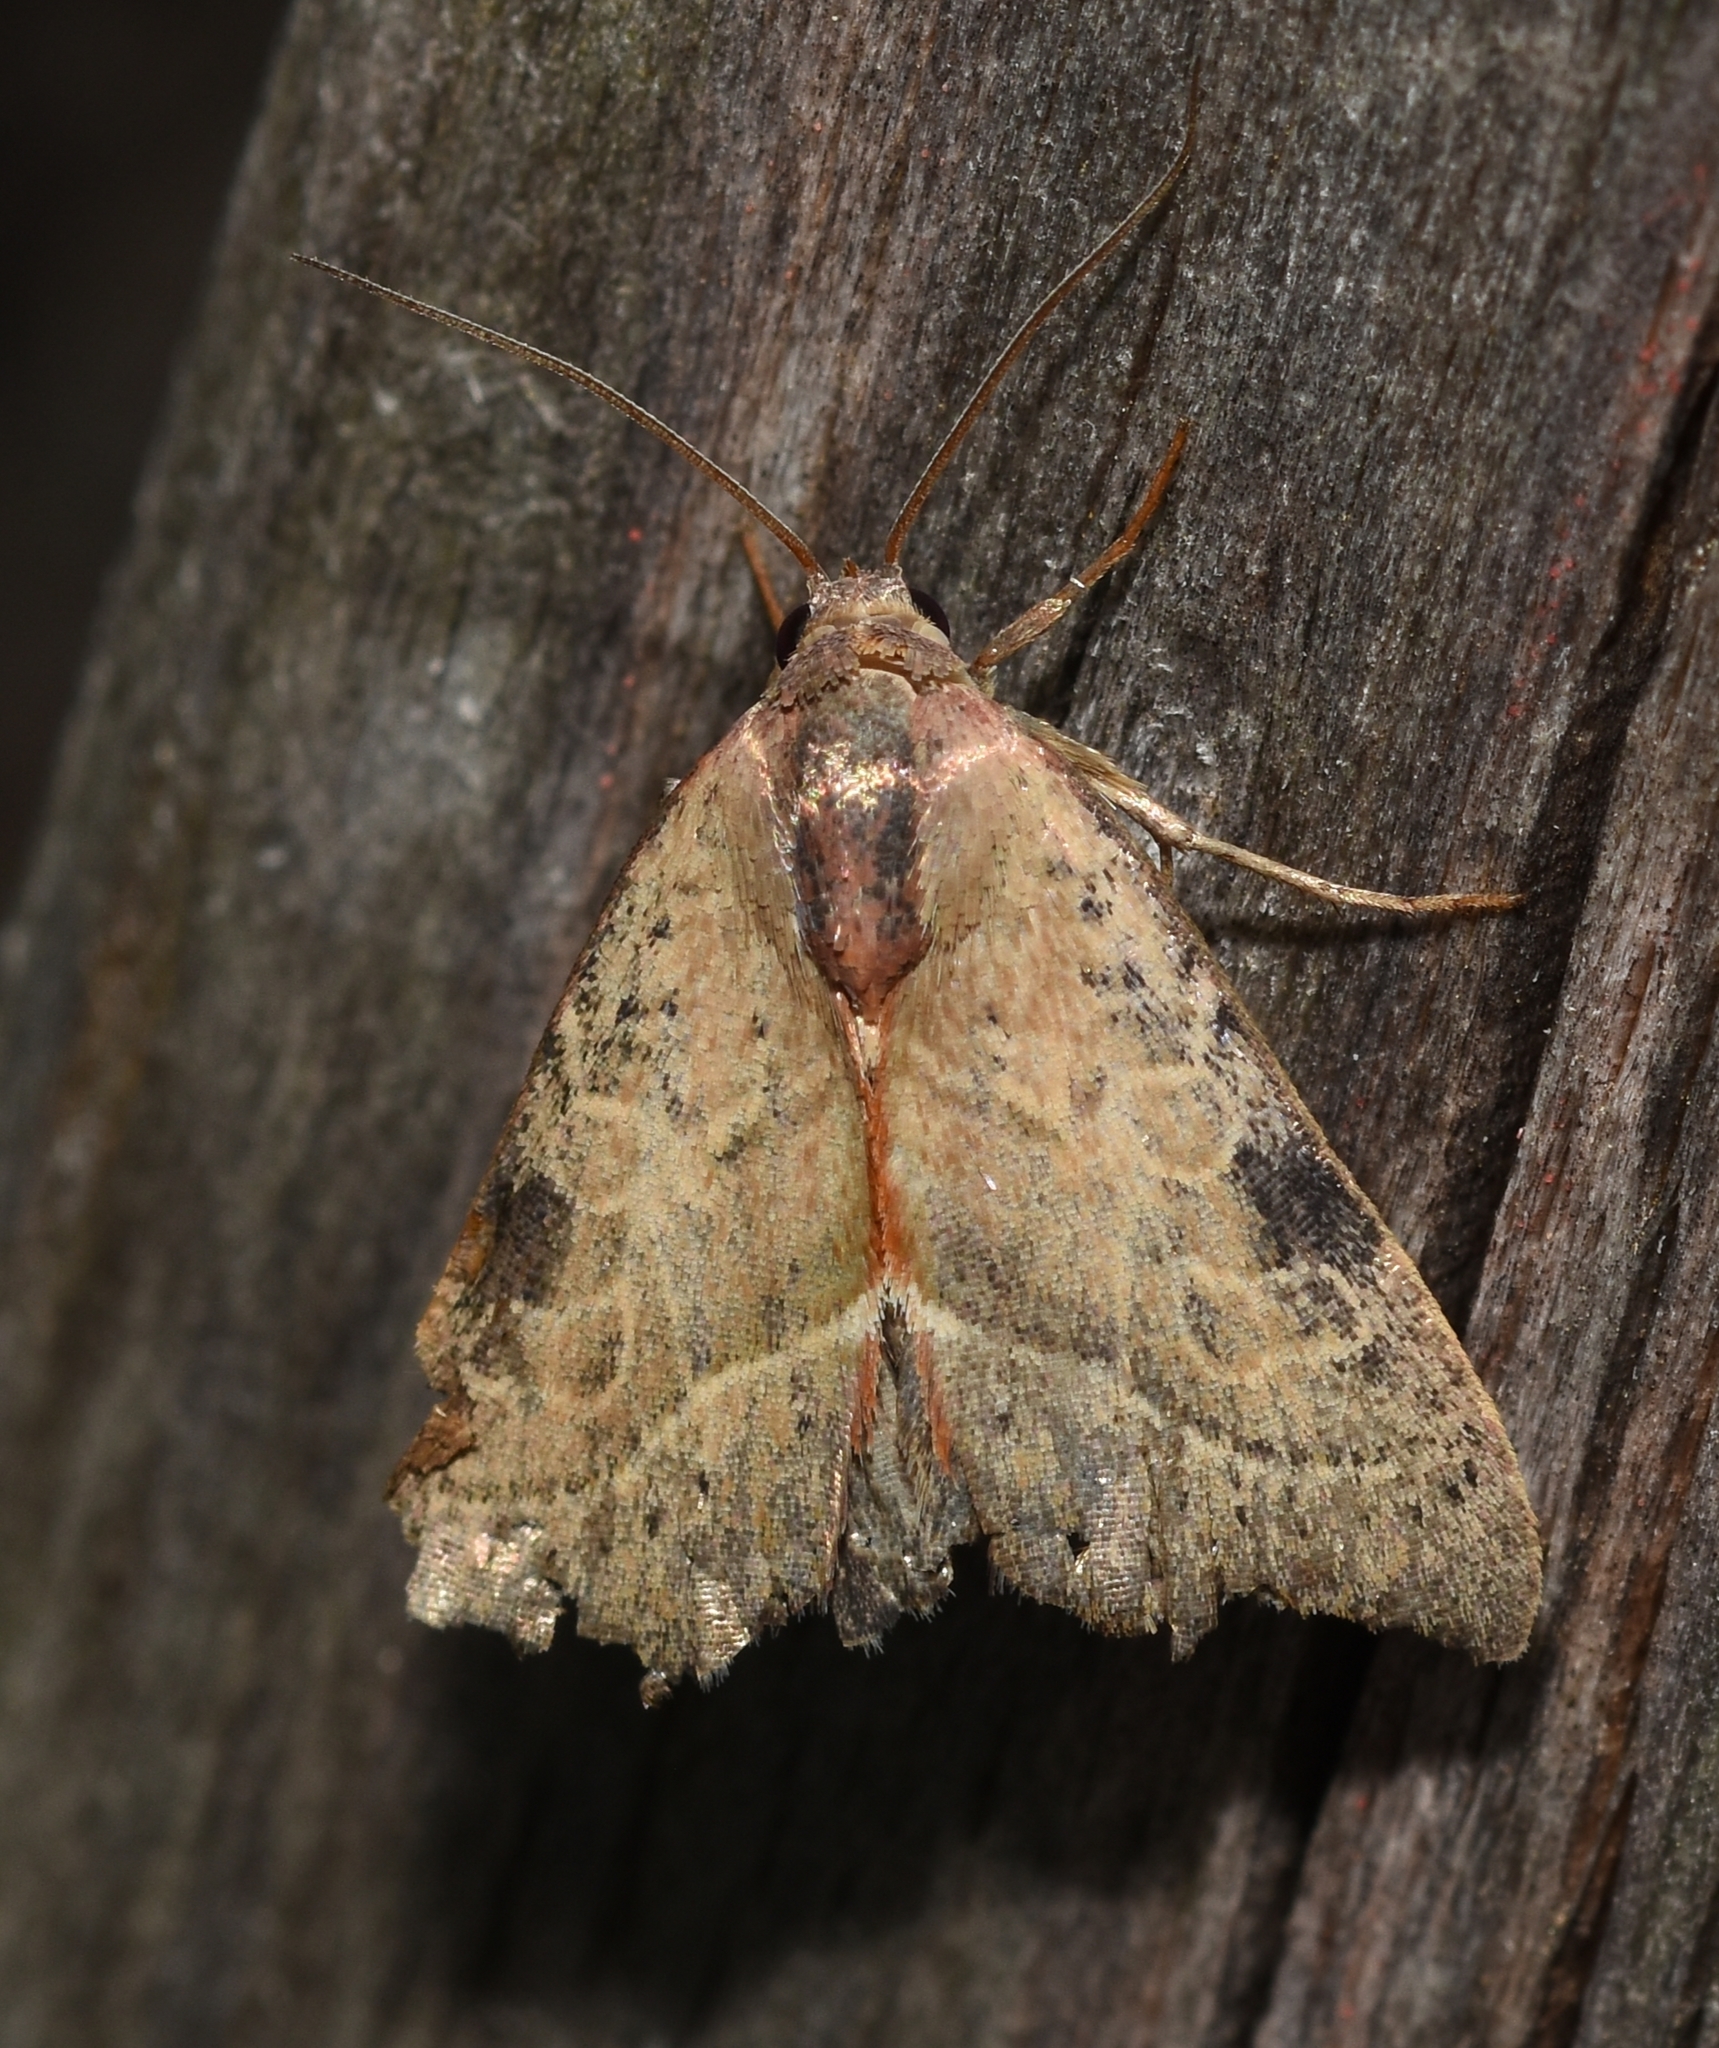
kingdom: Animalia
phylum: Arthropoda
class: Insecta
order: Lepidoptera
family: Noctuidae
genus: Galgula
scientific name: Galgula partita
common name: Wedgeling
